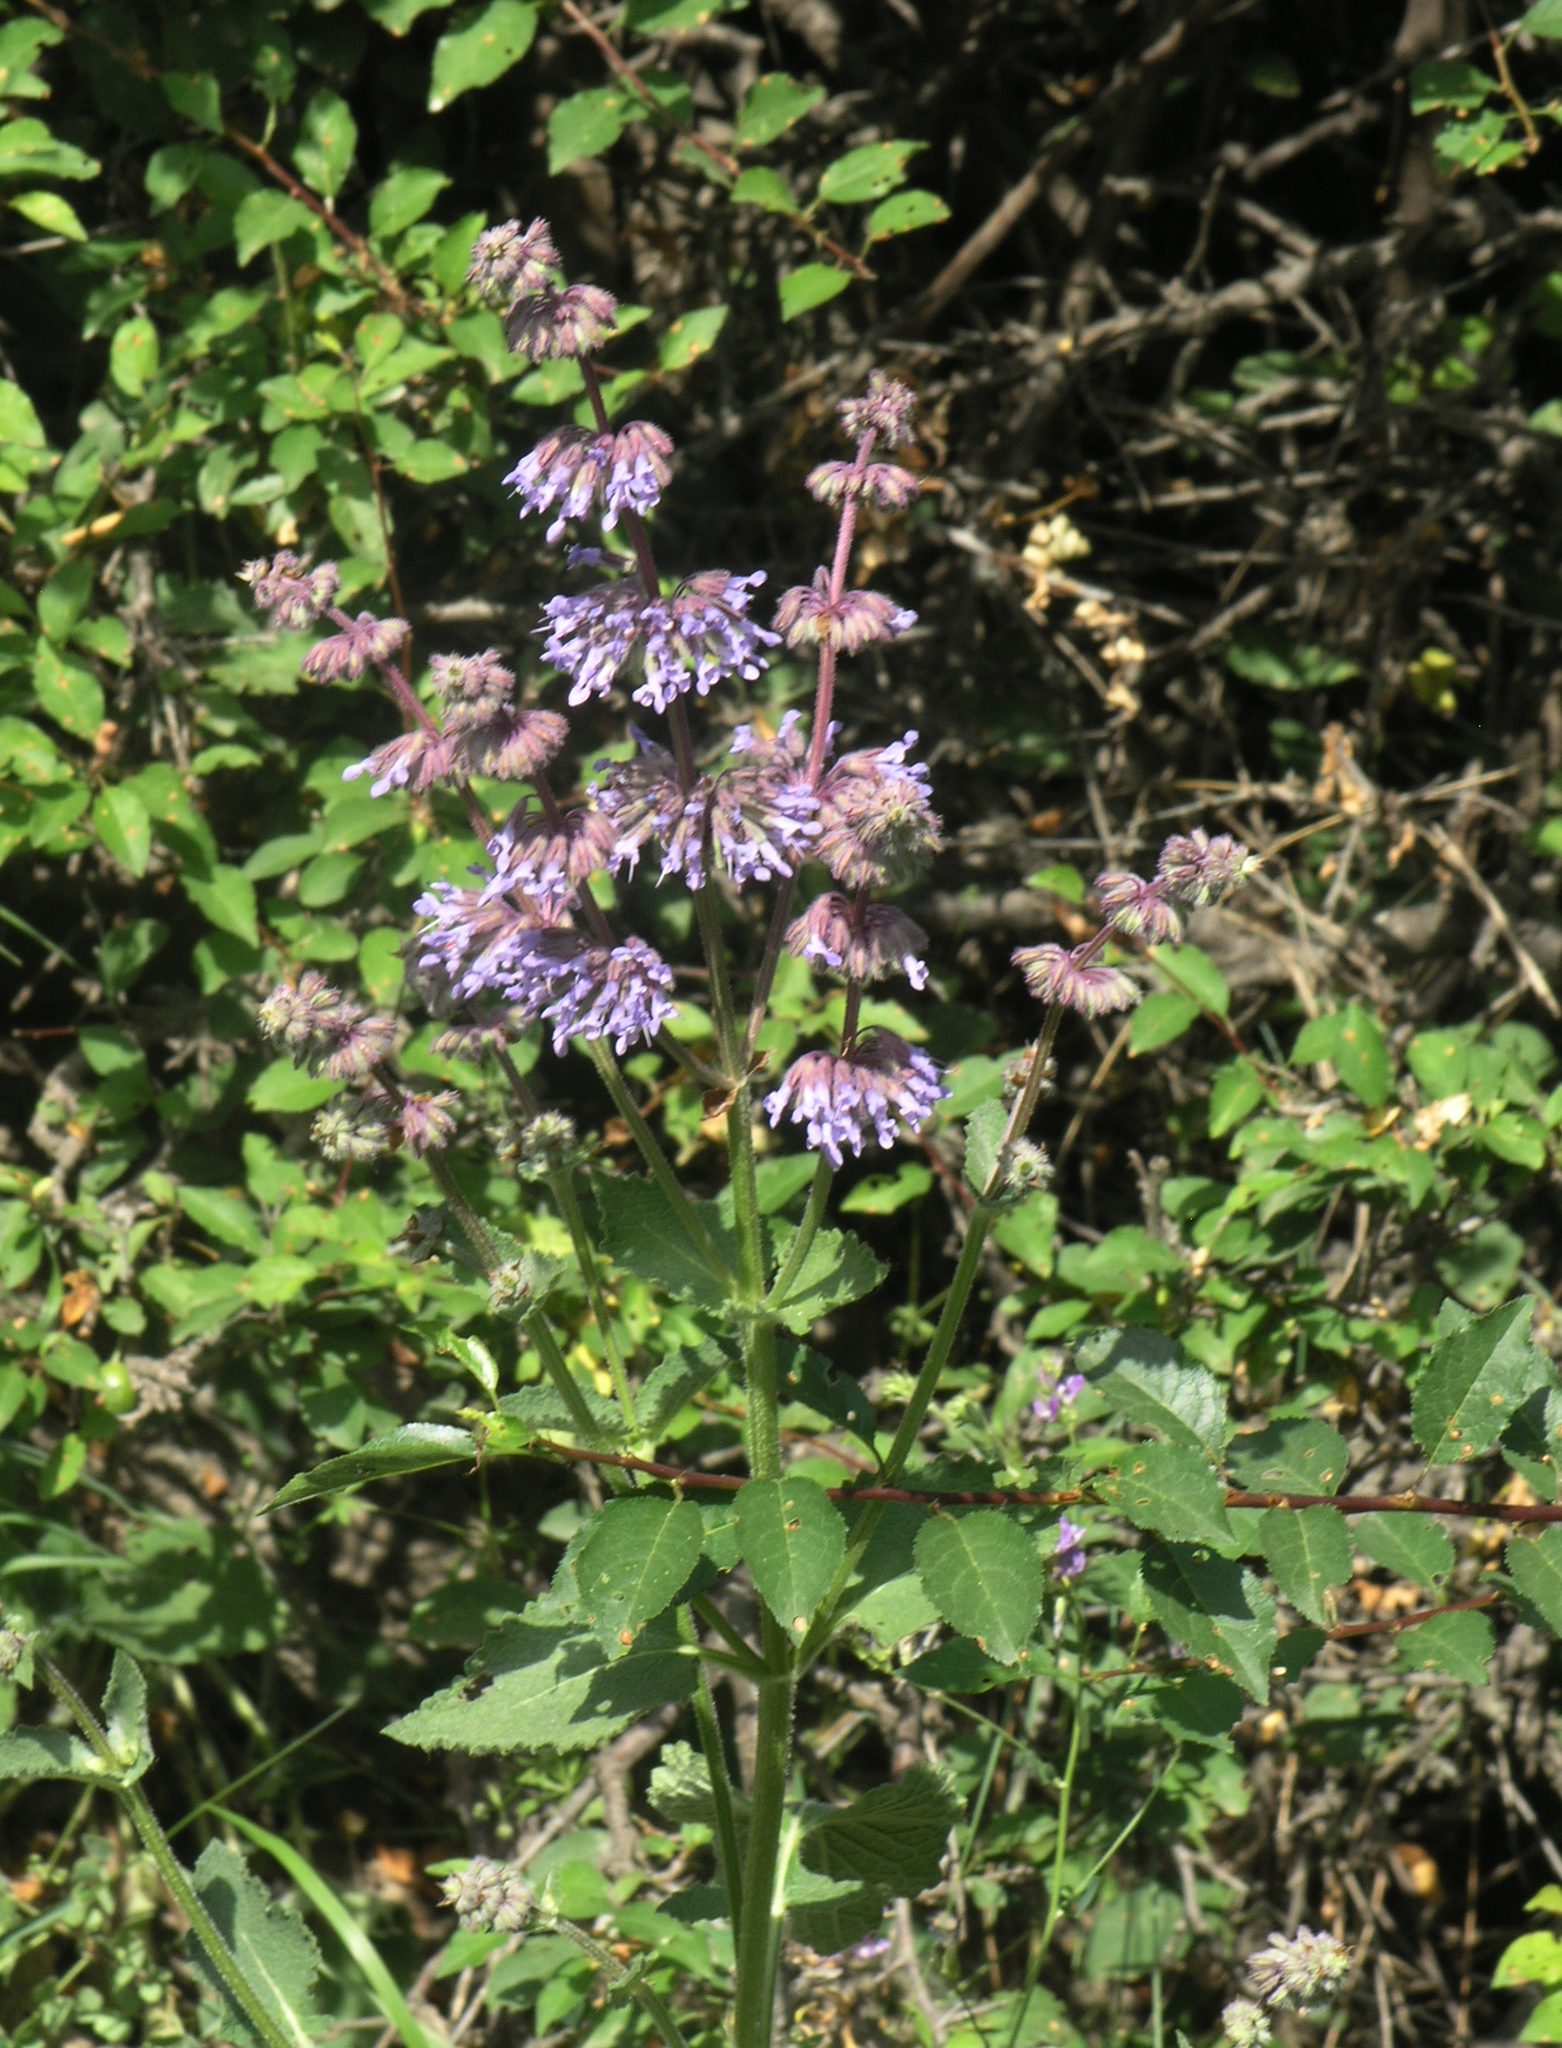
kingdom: Plantae
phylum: Tracheophyta
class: Magnoliopsida
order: Lamiales
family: Lamiaceae
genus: Salvia
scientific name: Salvia verticillata
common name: Whorled clary
